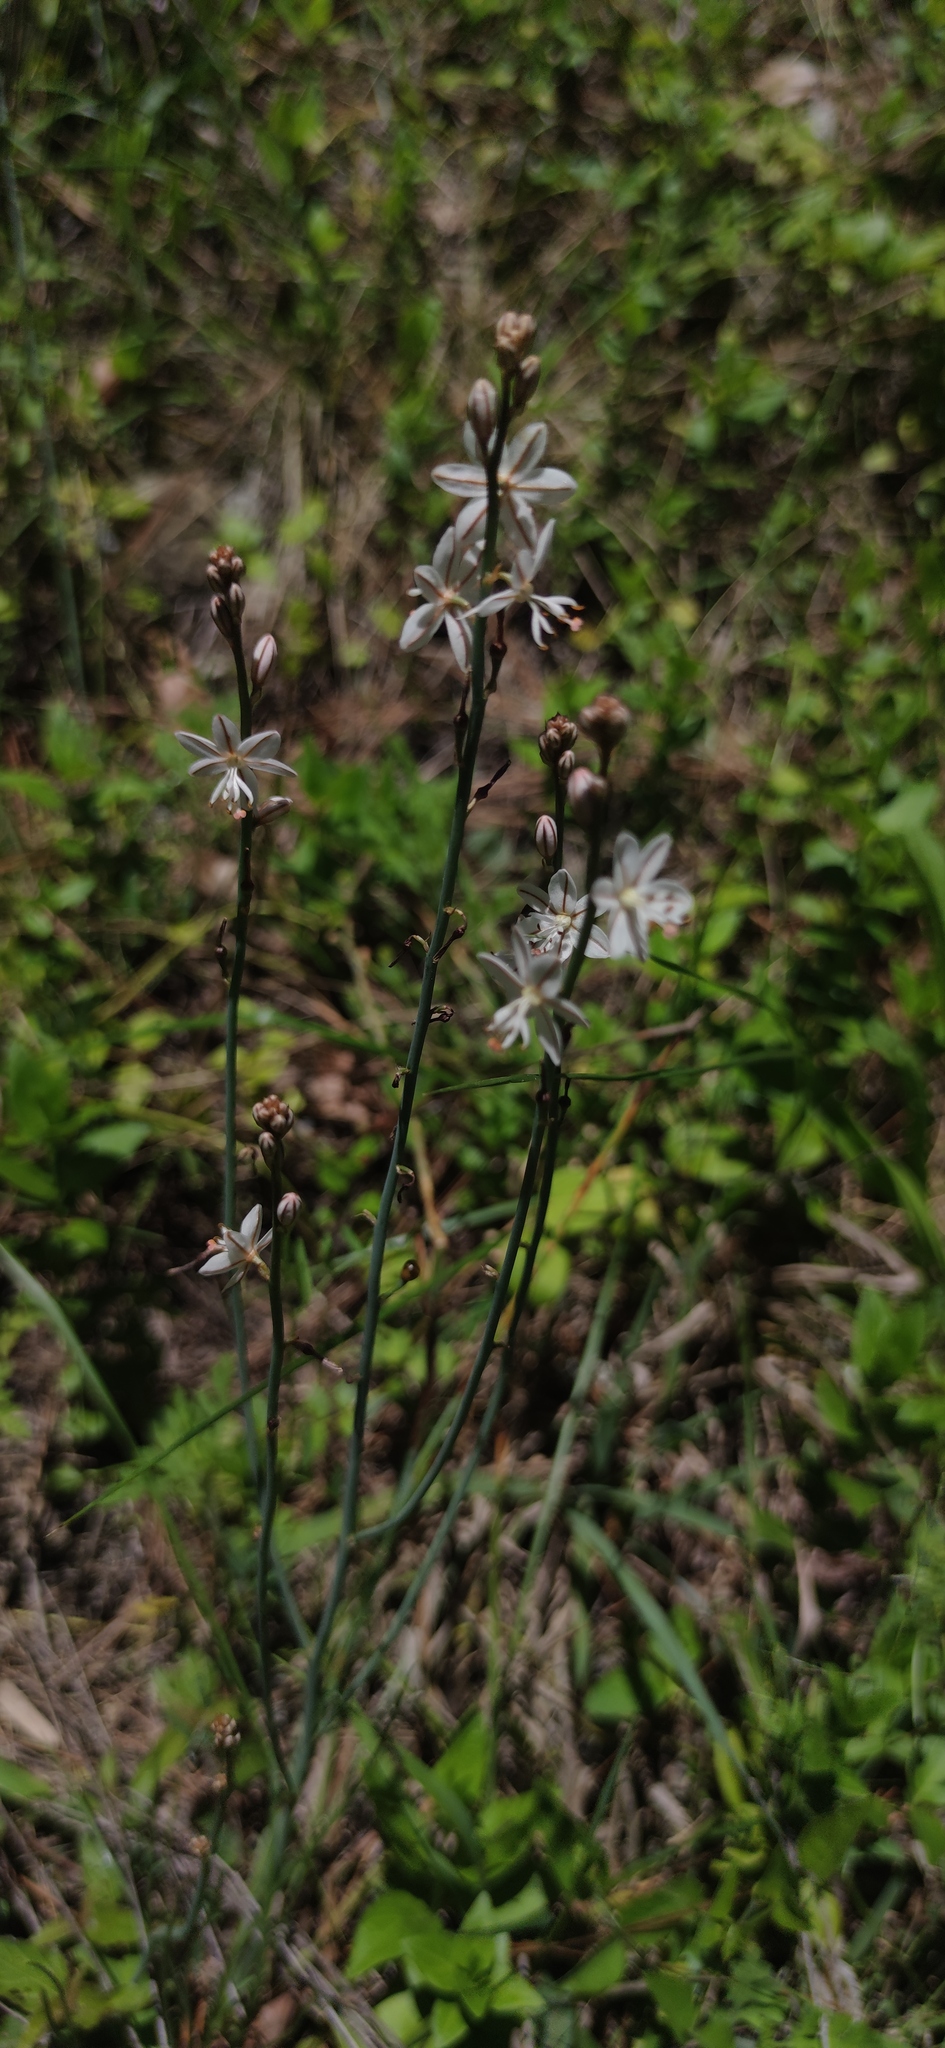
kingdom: Plantae
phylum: Tracheophyta
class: Liliopsida
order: Asparagales
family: Asphodelaceae
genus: Asphodelus
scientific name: Asphodelus fistulosus
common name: Onionweed
